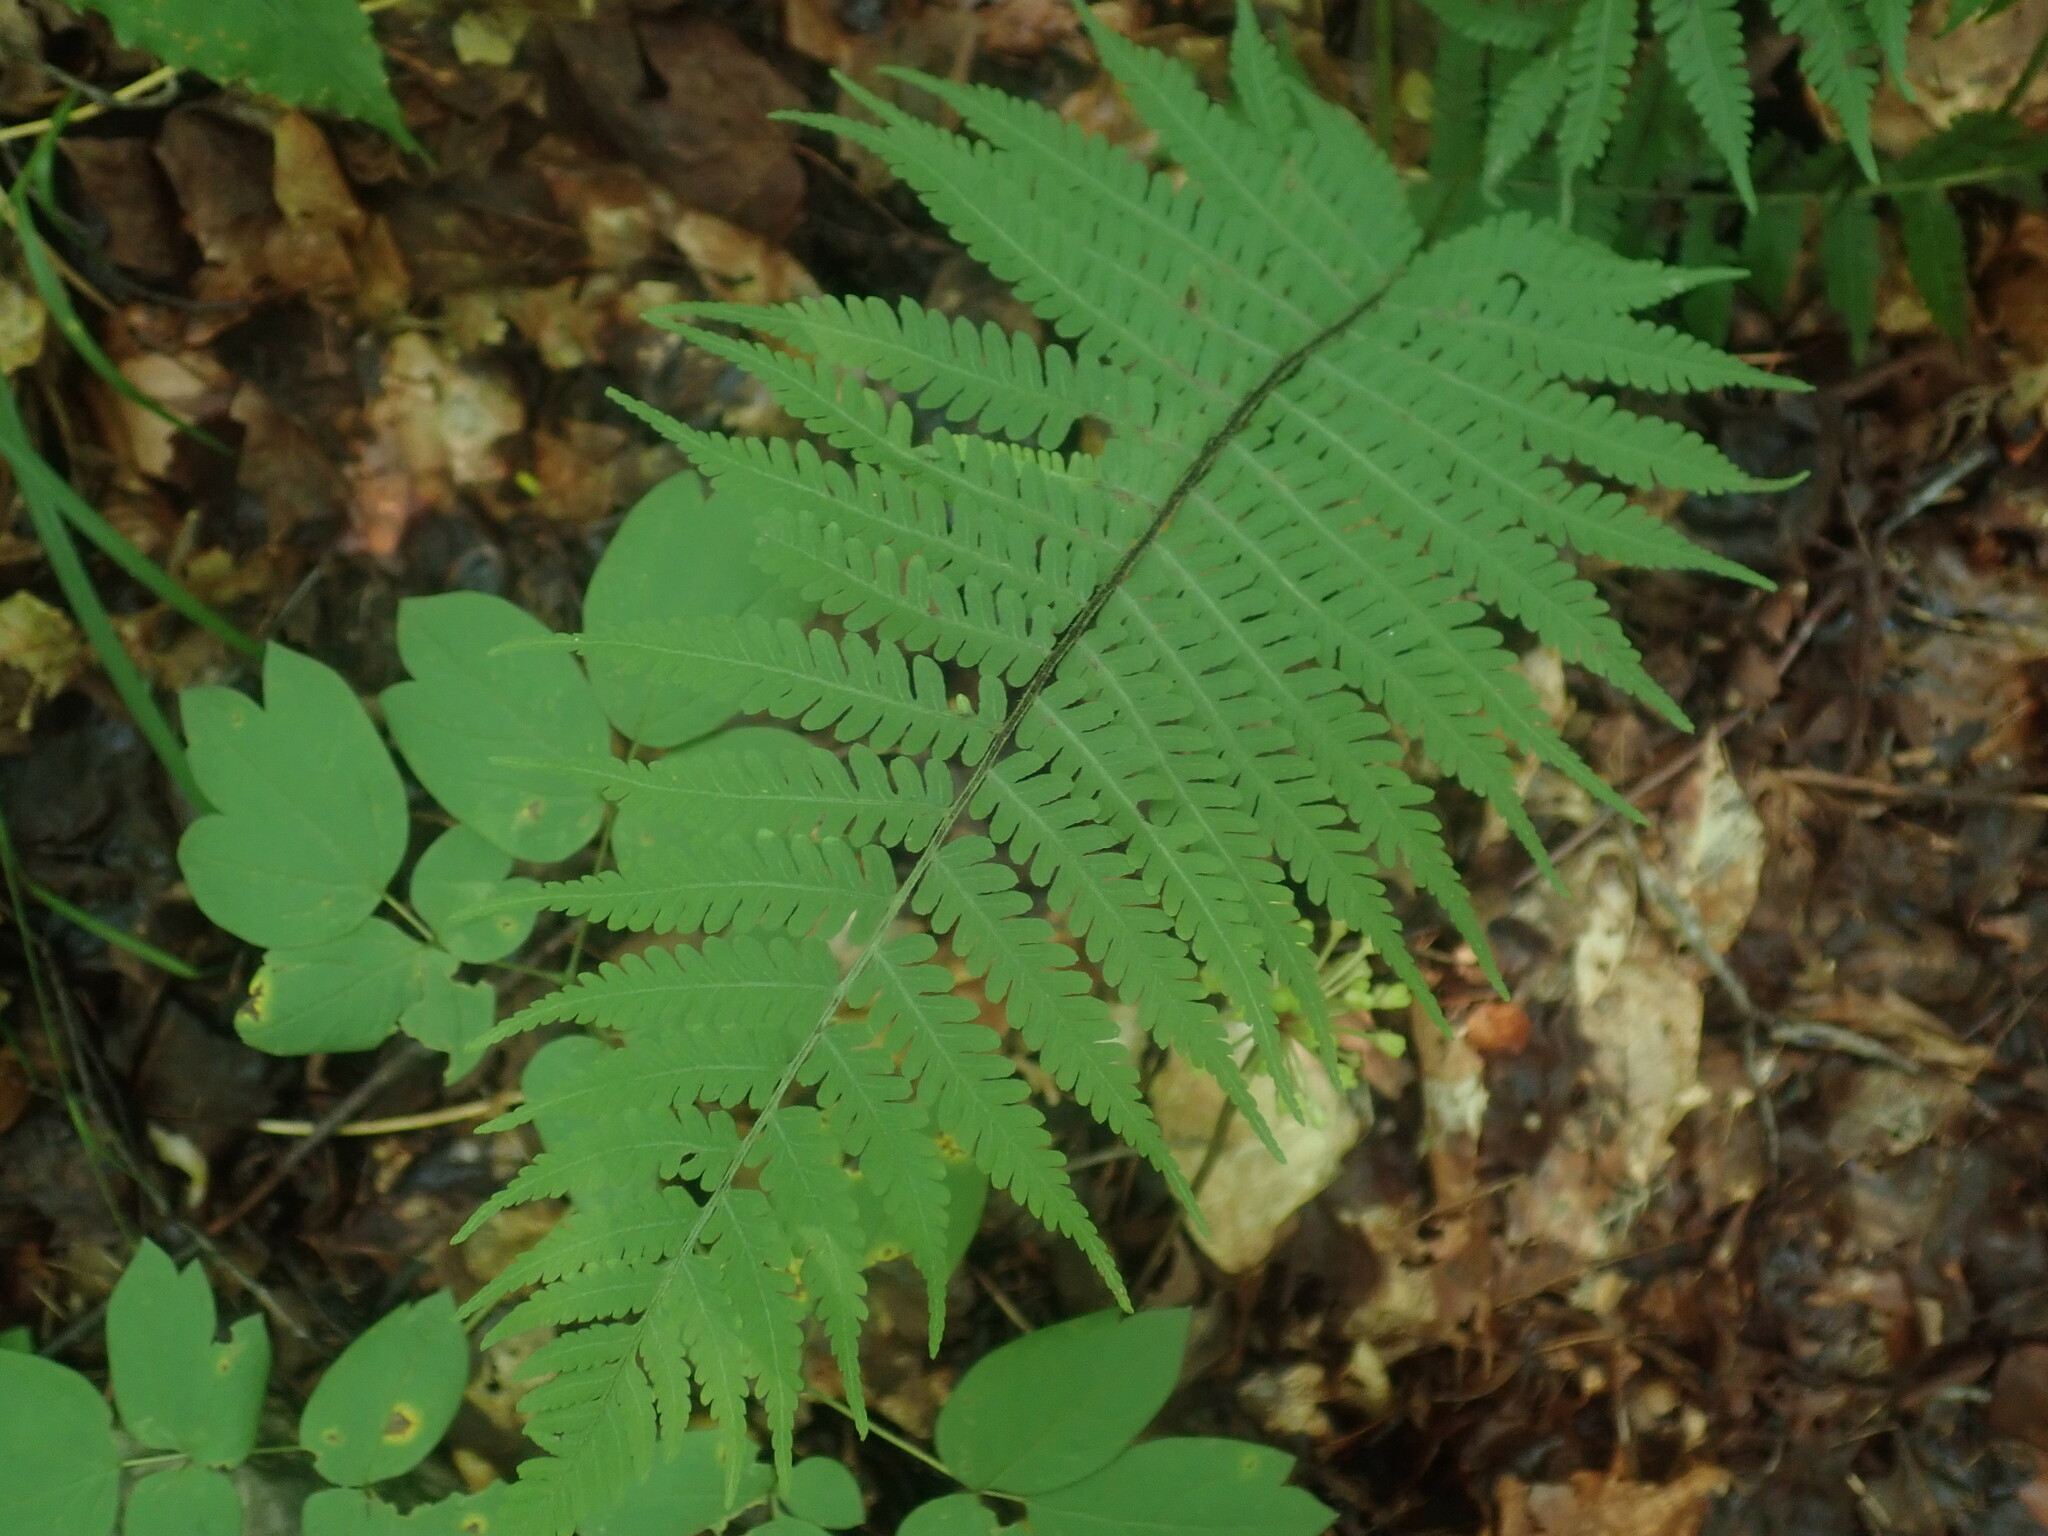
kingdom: Plantae
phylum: Tracheophyta
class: Polypodiopsida
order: Polypodiales
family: Athyriaceae
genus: Deparia
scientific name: Deparia acrostichoides
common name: Silver false spleenwort
